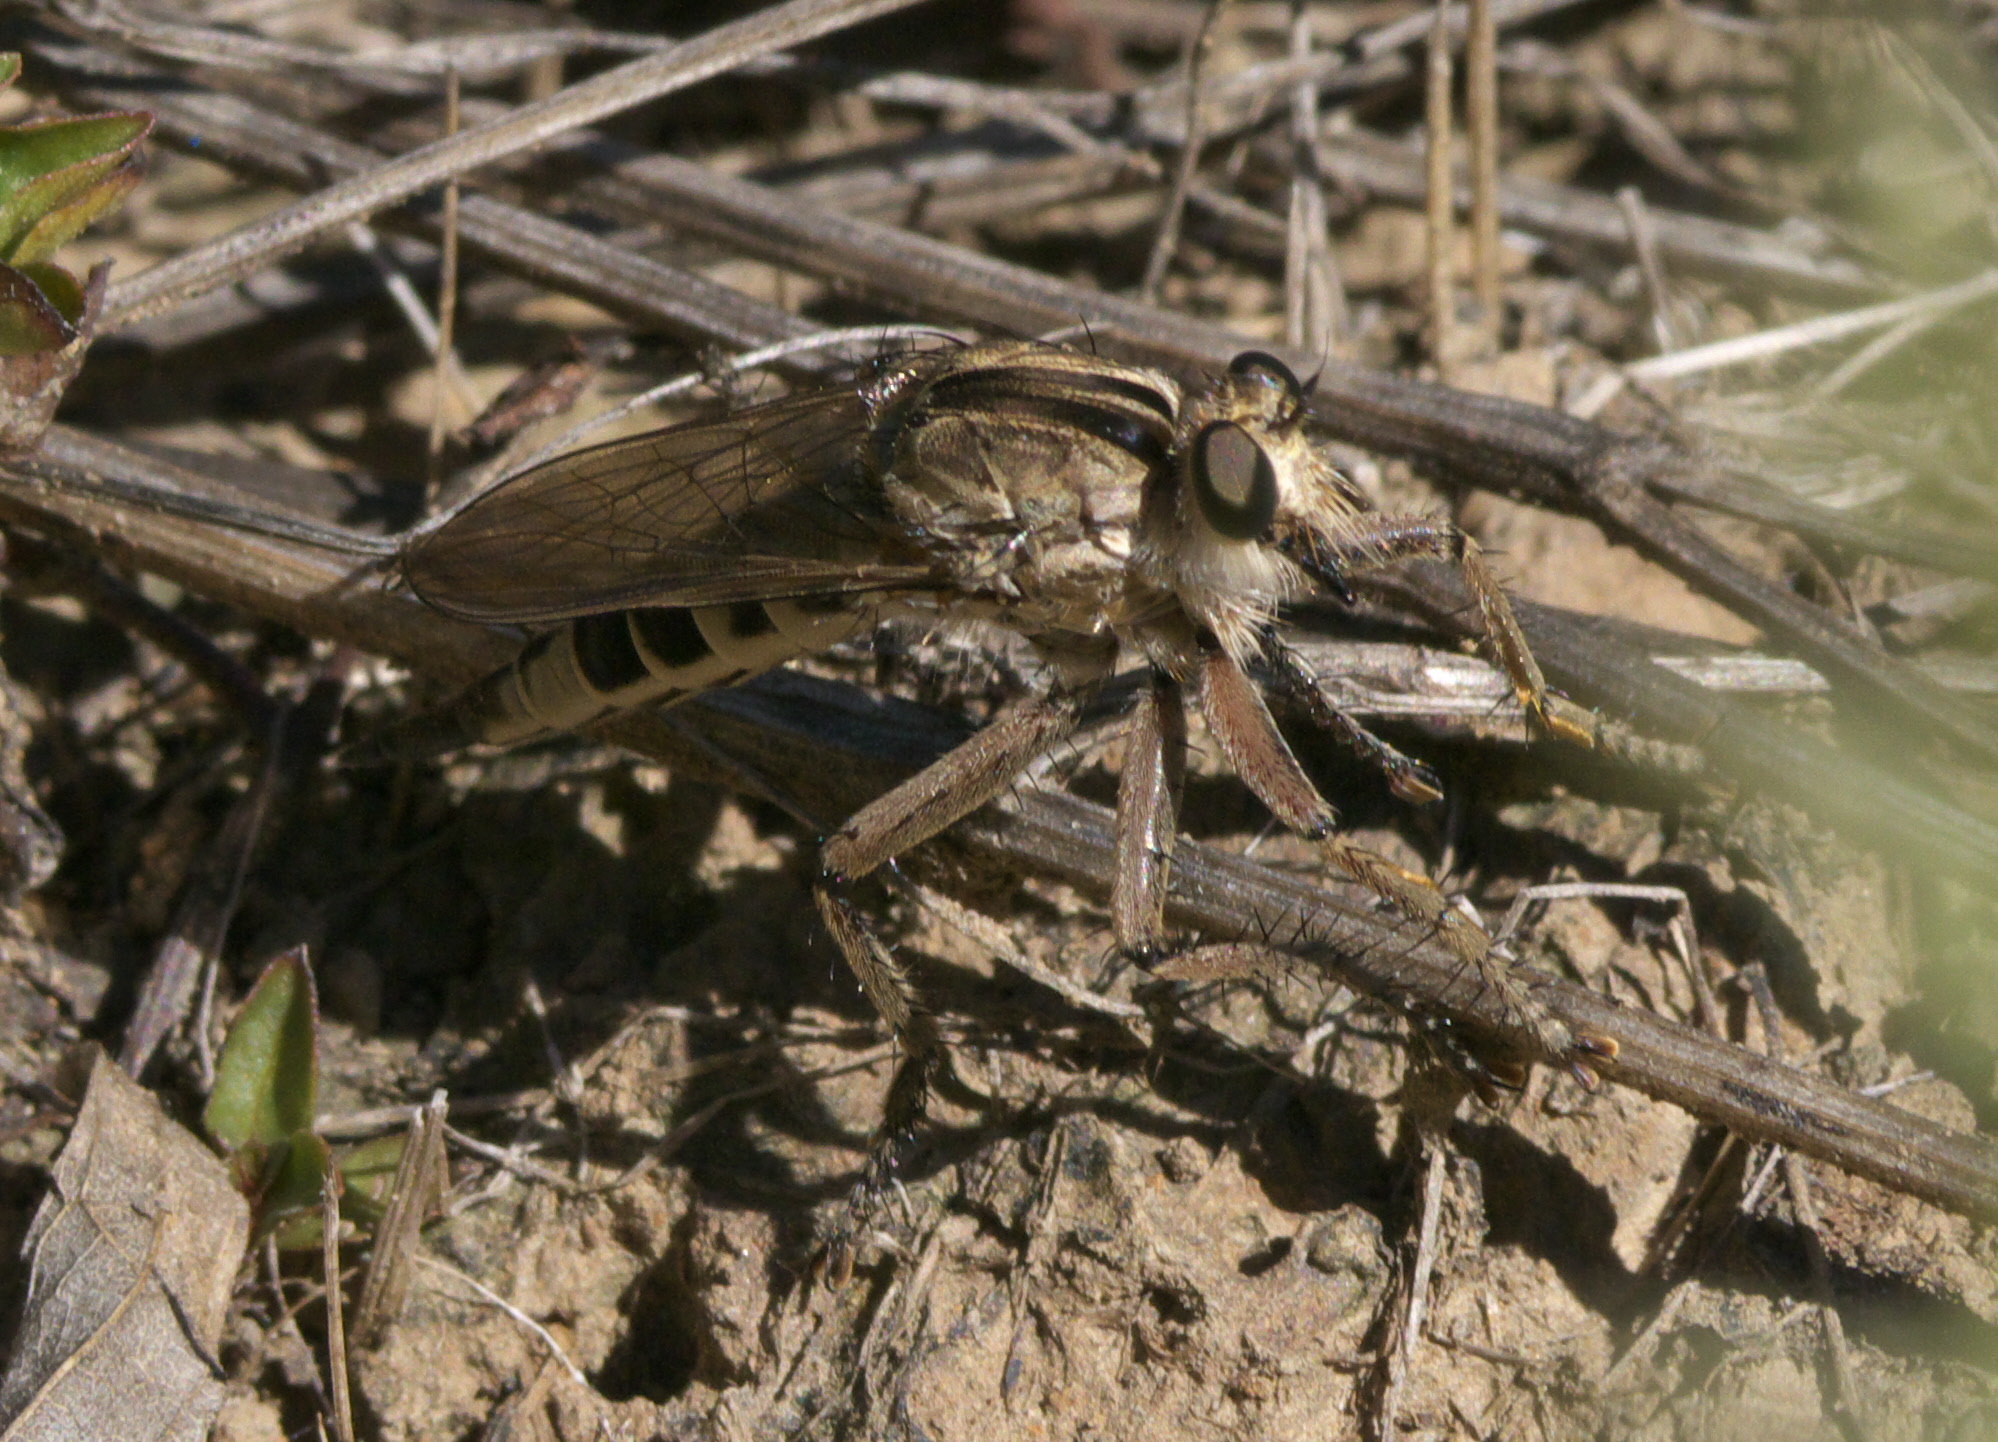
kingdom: Animalia
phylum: Arthropoda
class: Insecta
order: Diptera
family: Asilidae
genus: Triorla
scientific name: Triorla interrupta
